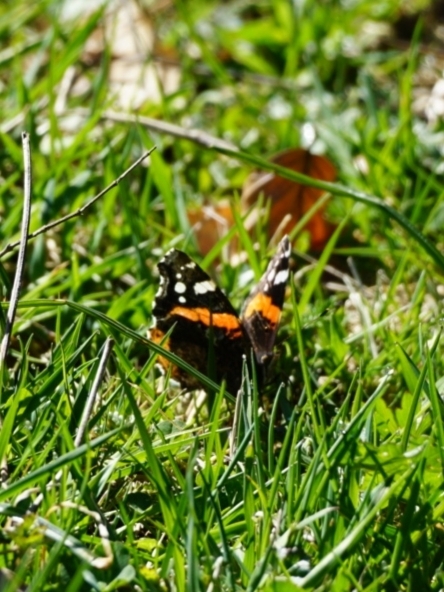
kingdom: Animalia
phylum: Arthropoda
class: Insecta
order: Lepidoptera
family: Nymphalidae
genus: Vanessa
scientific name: Vanessa atalanta
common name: Red admiral
